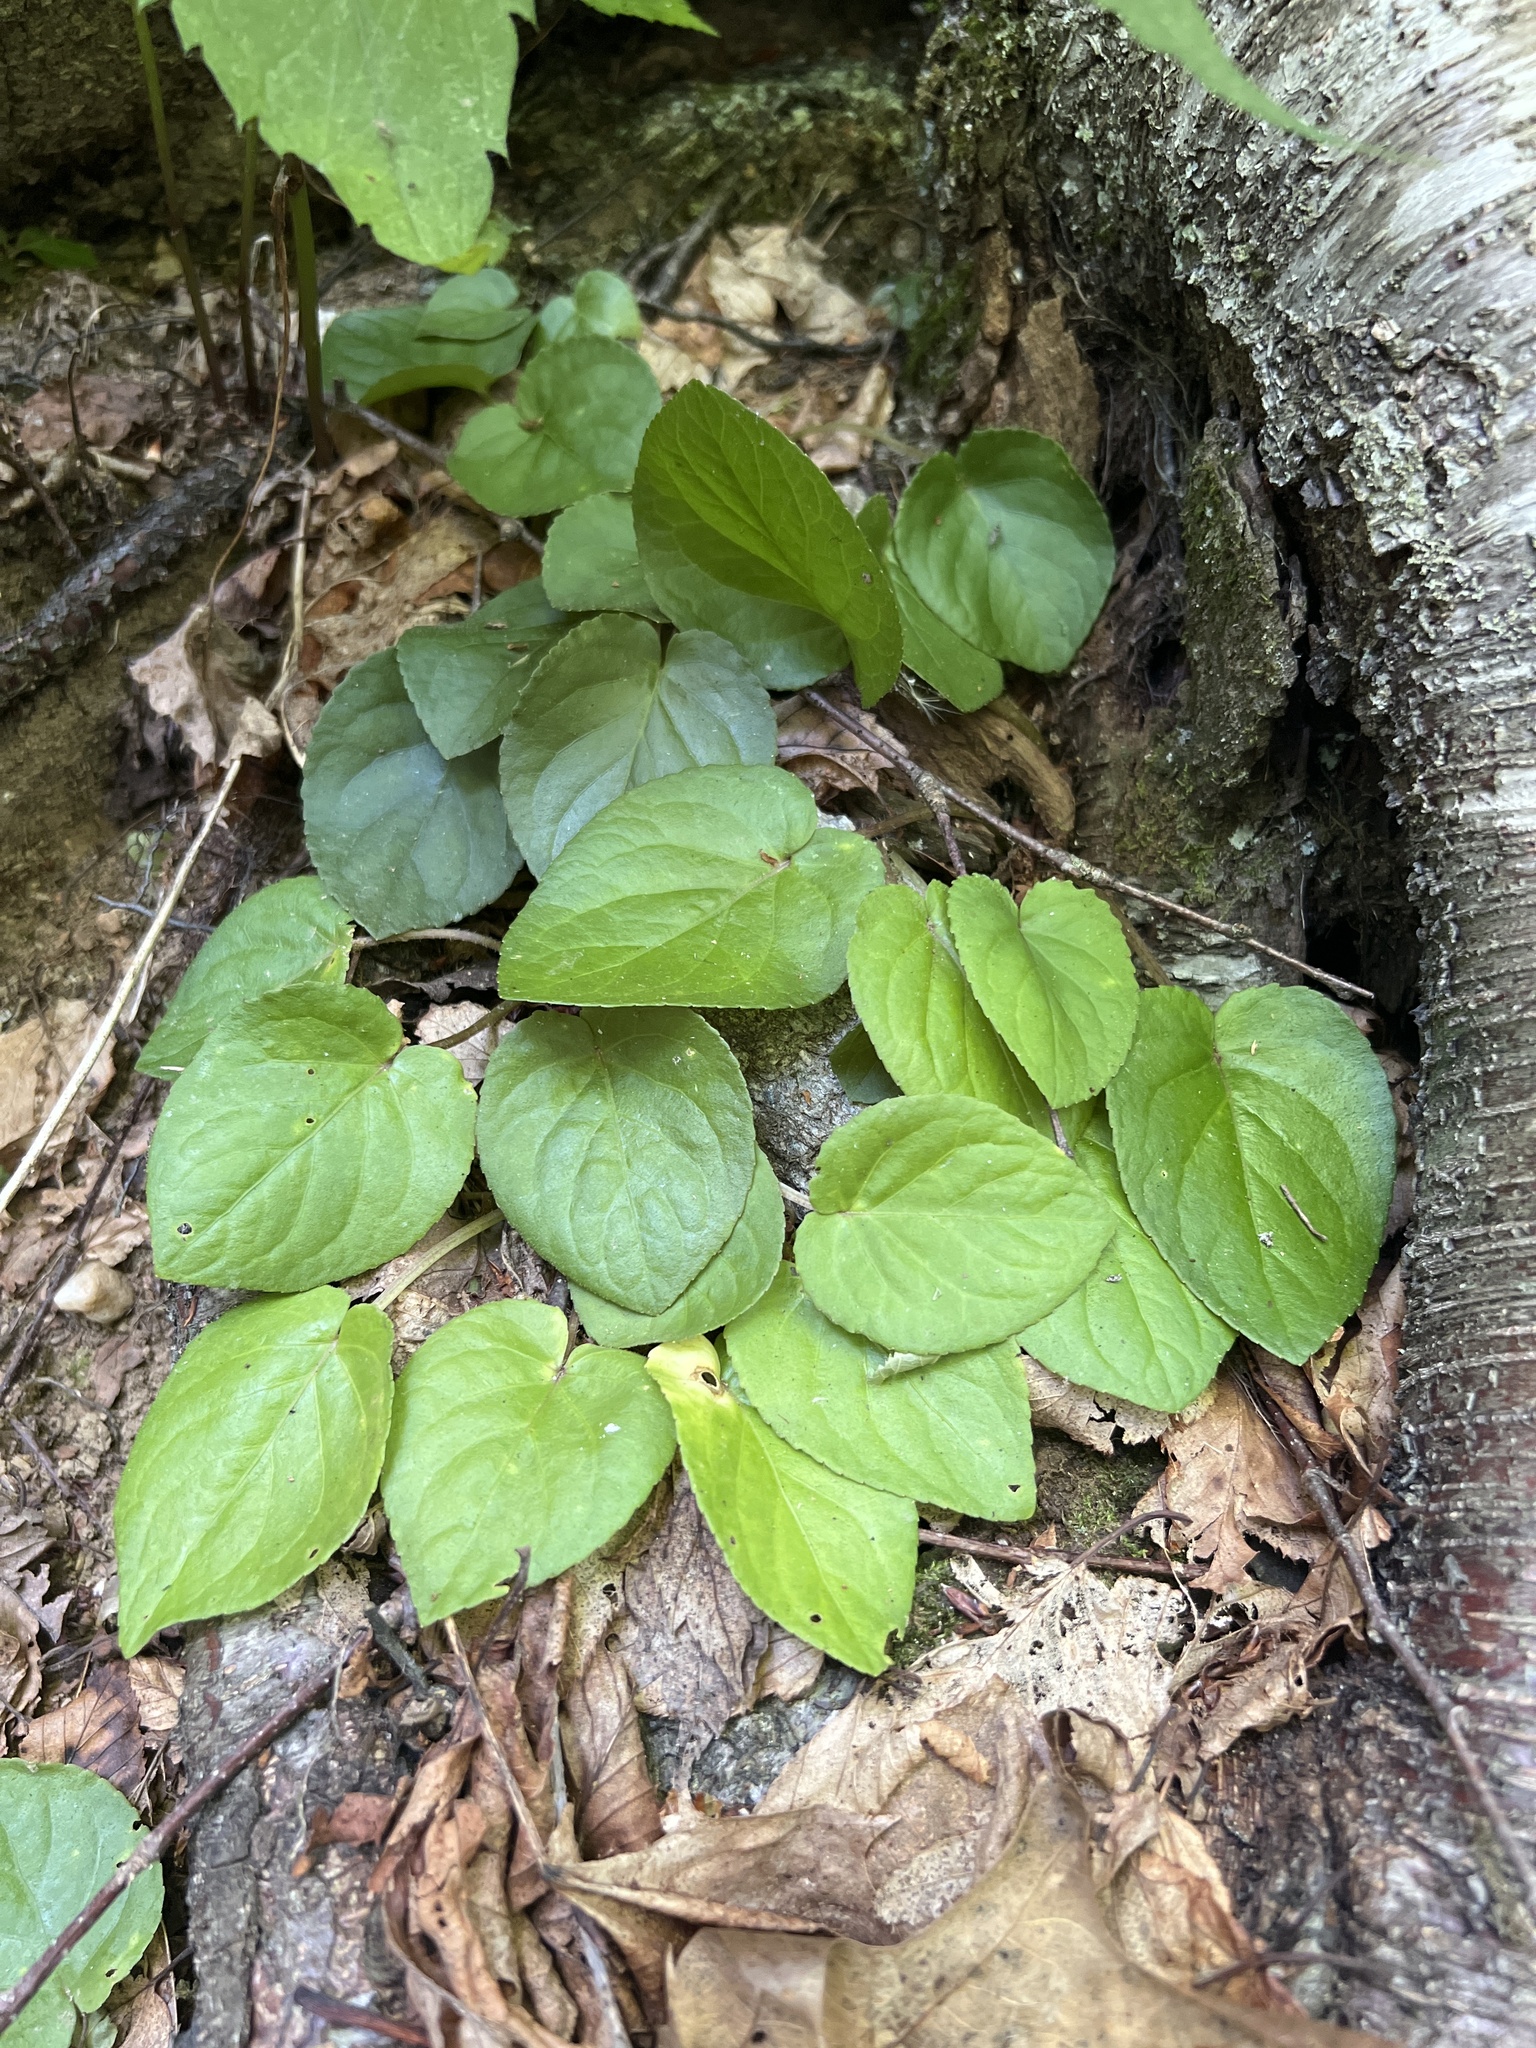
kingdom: Plantae
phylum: Tracheophyta
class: Magnoliopsida
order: Malpighiales
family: Violaceae
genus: Viola
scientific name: Viola rotundifolia
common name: Early yellow violet
